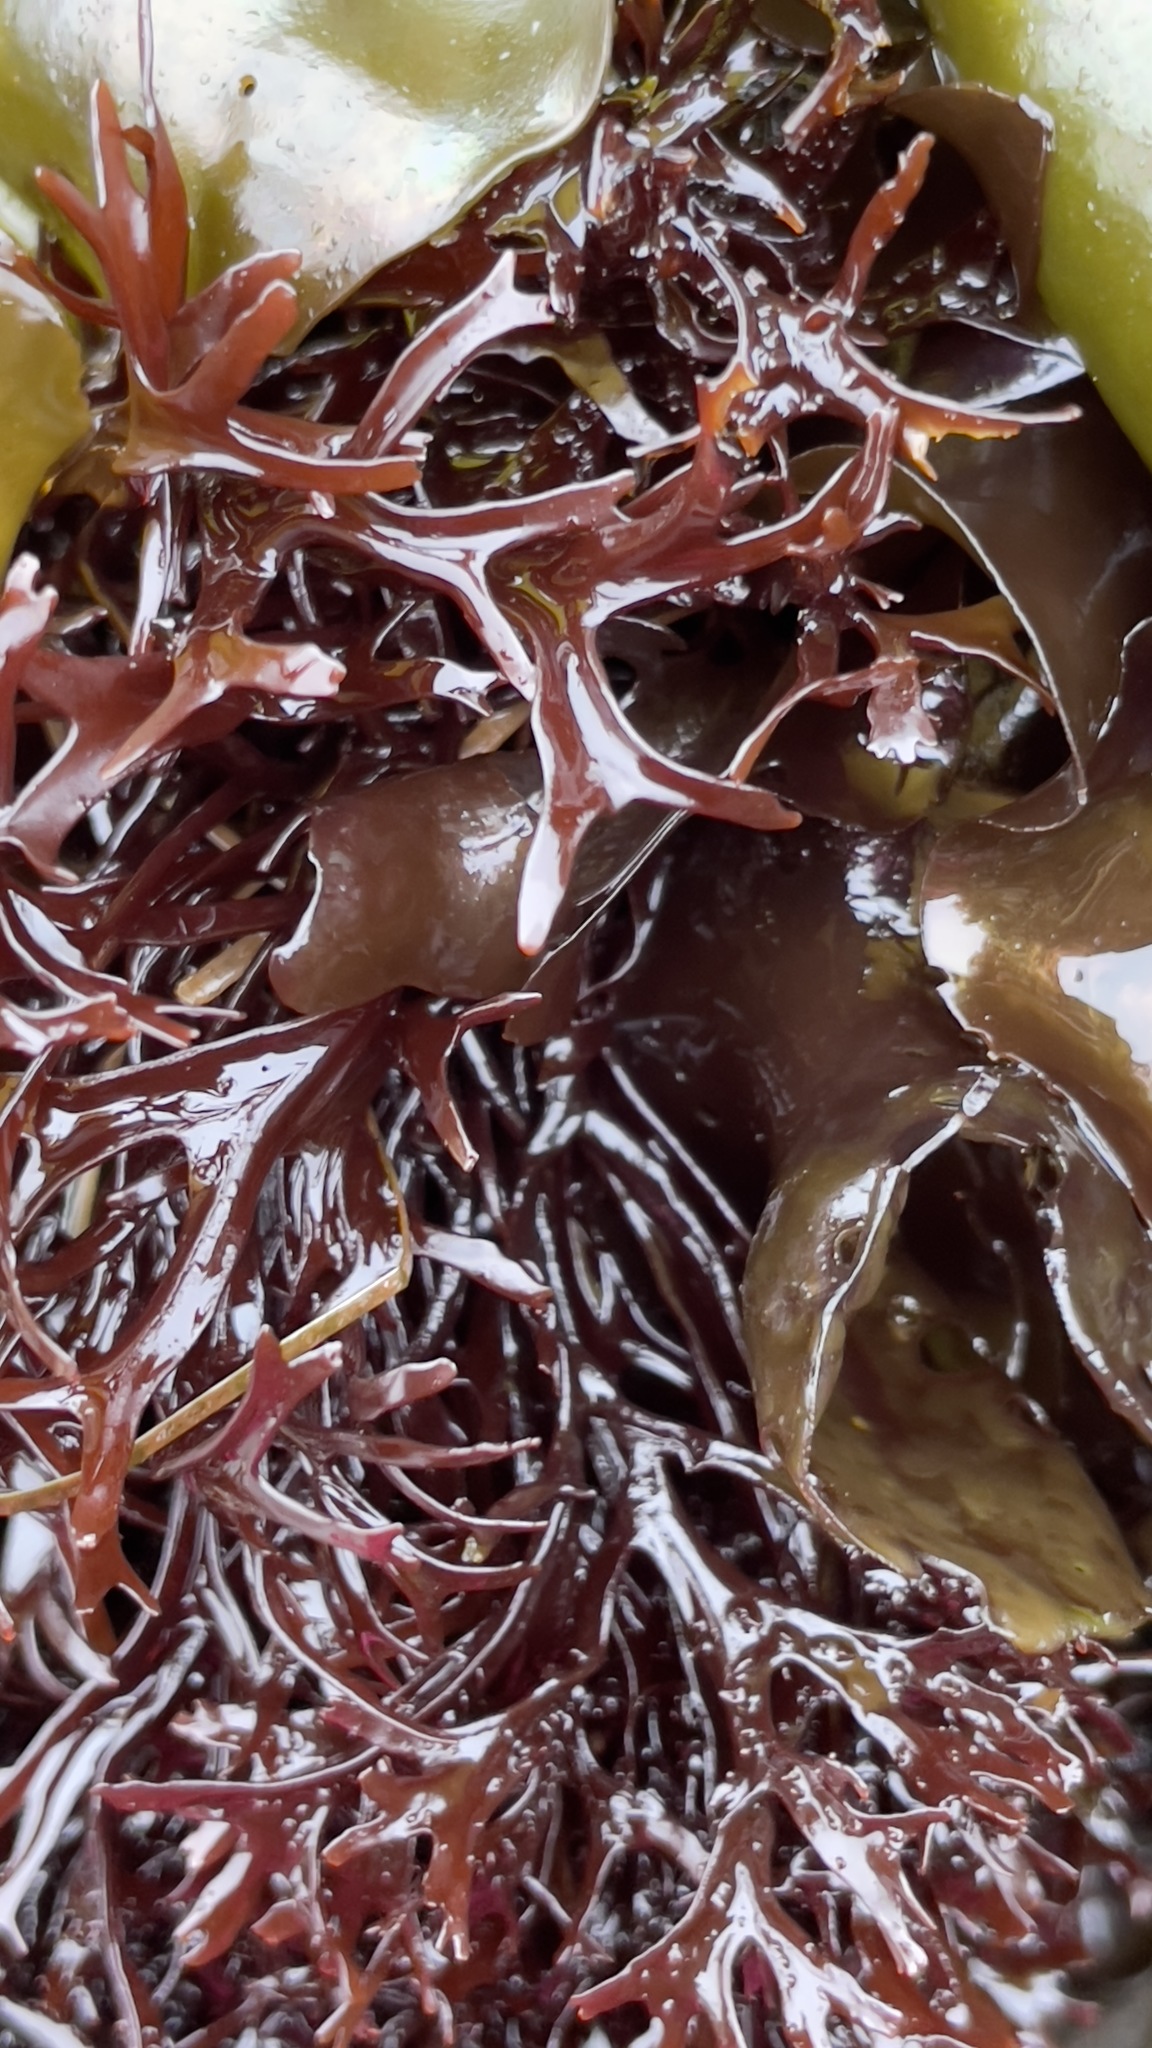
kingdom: Plantae
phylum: Rhodophyta
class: Florideophyceae
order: Gigartinales
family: Phyllophoraceae
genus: Mastocarpus
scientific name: Mastocarpus jardinii
